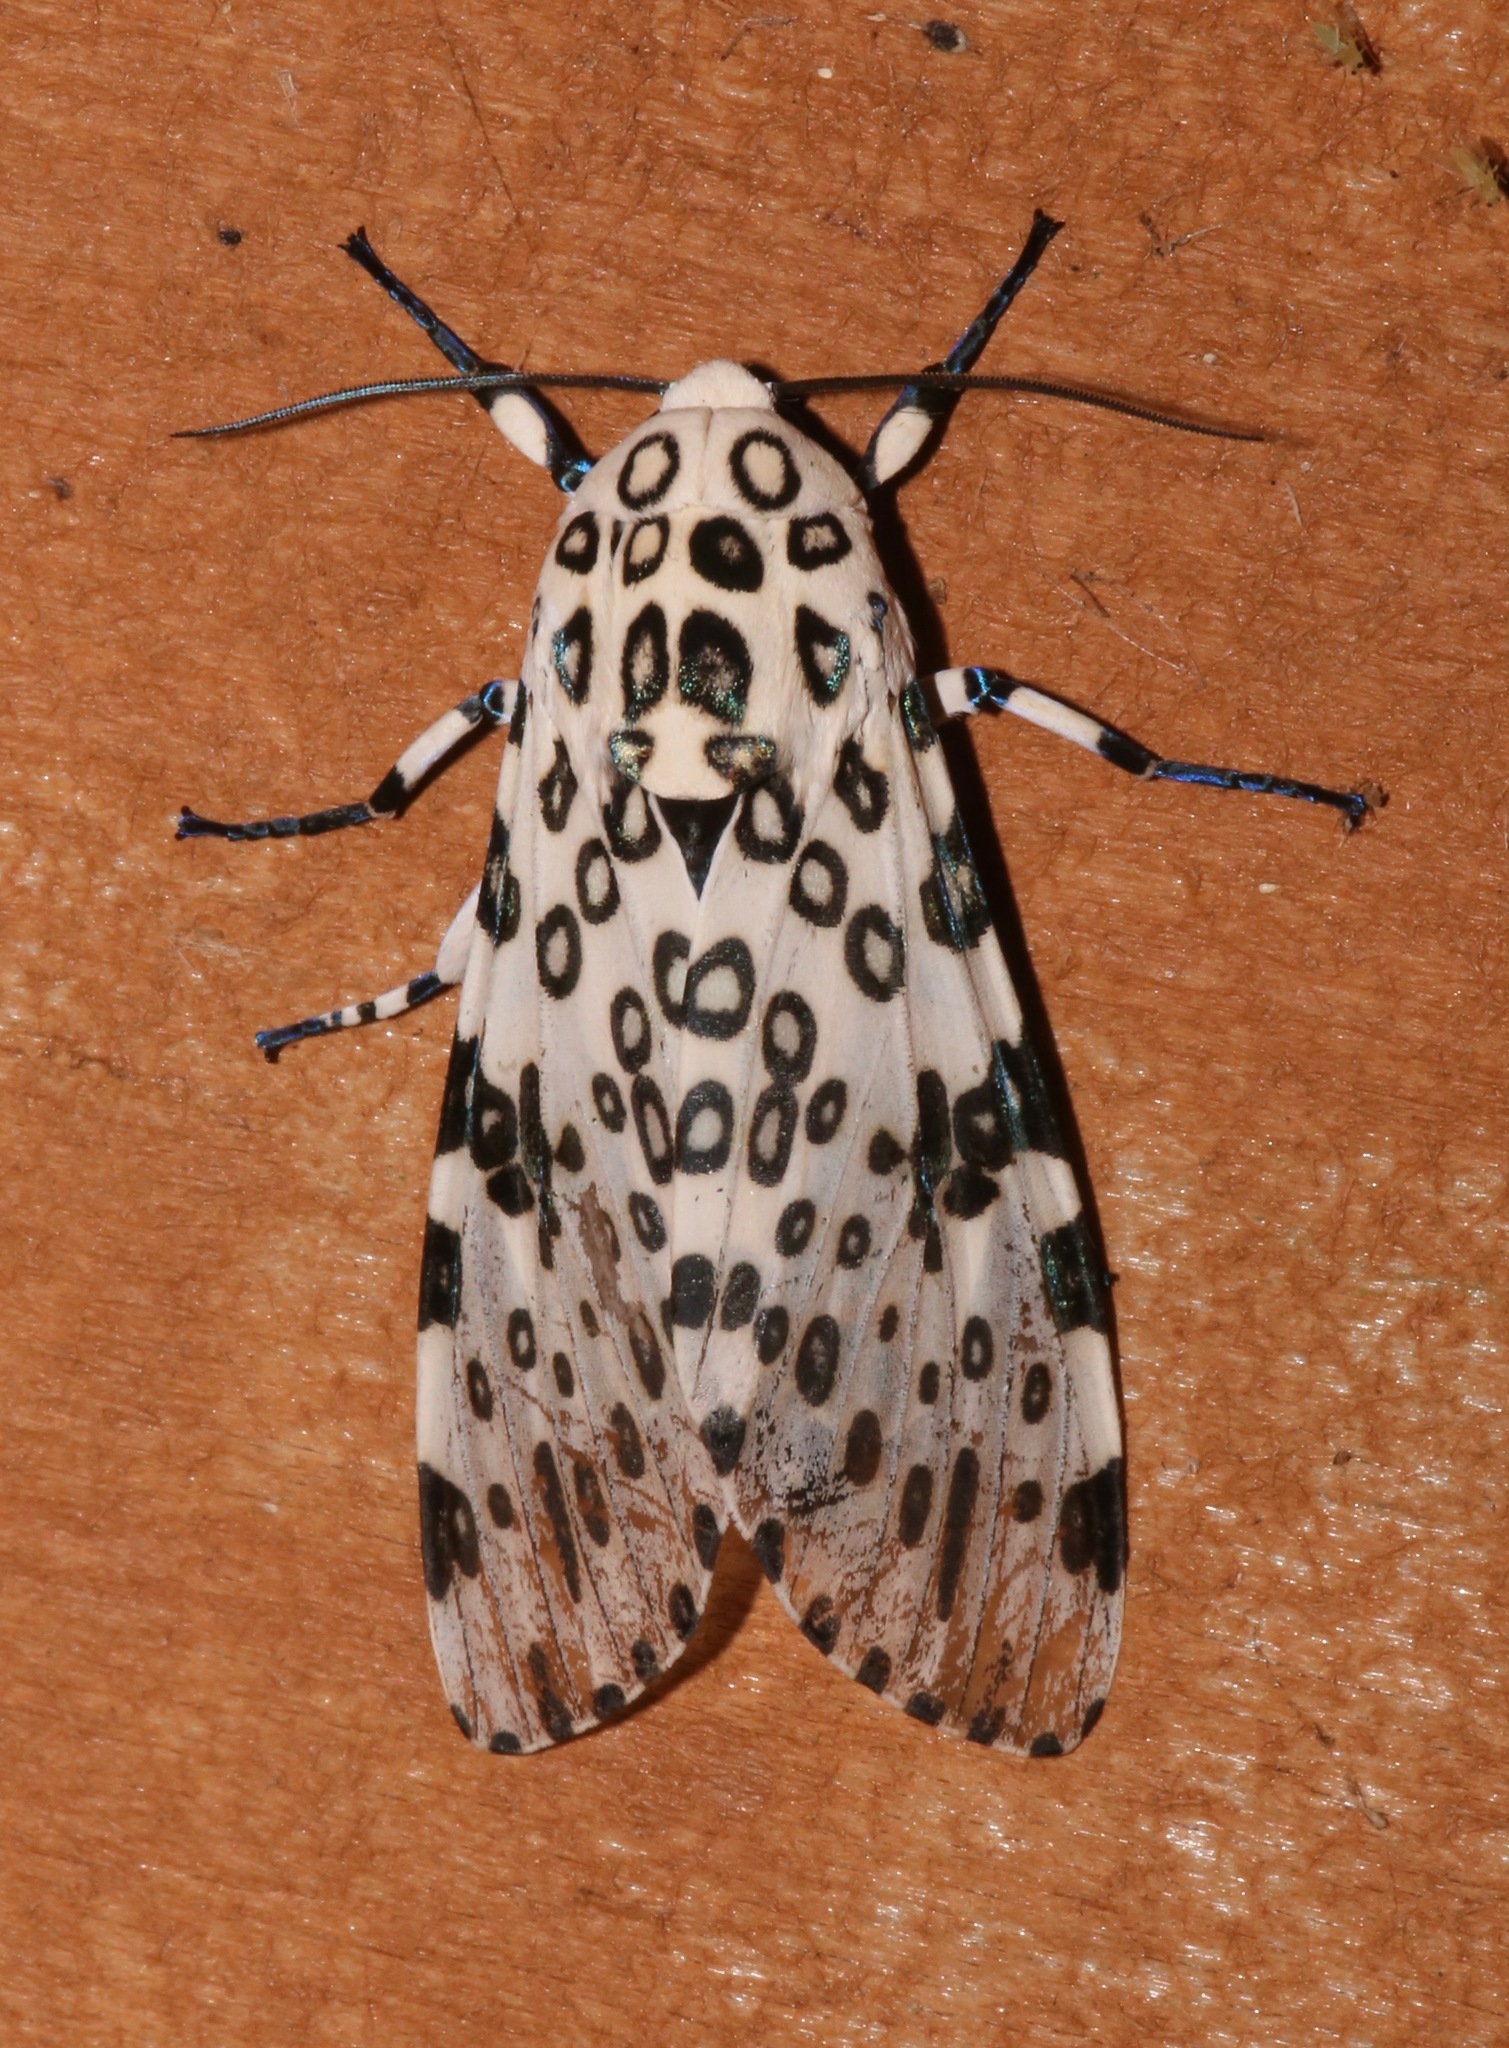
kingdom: Animalia
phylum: Arthropoda
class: Insecta
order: Lepidoptera
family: Erebidae
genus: Hypercompe
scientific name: Hypercompe scribonia
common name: Giant leopard moth
